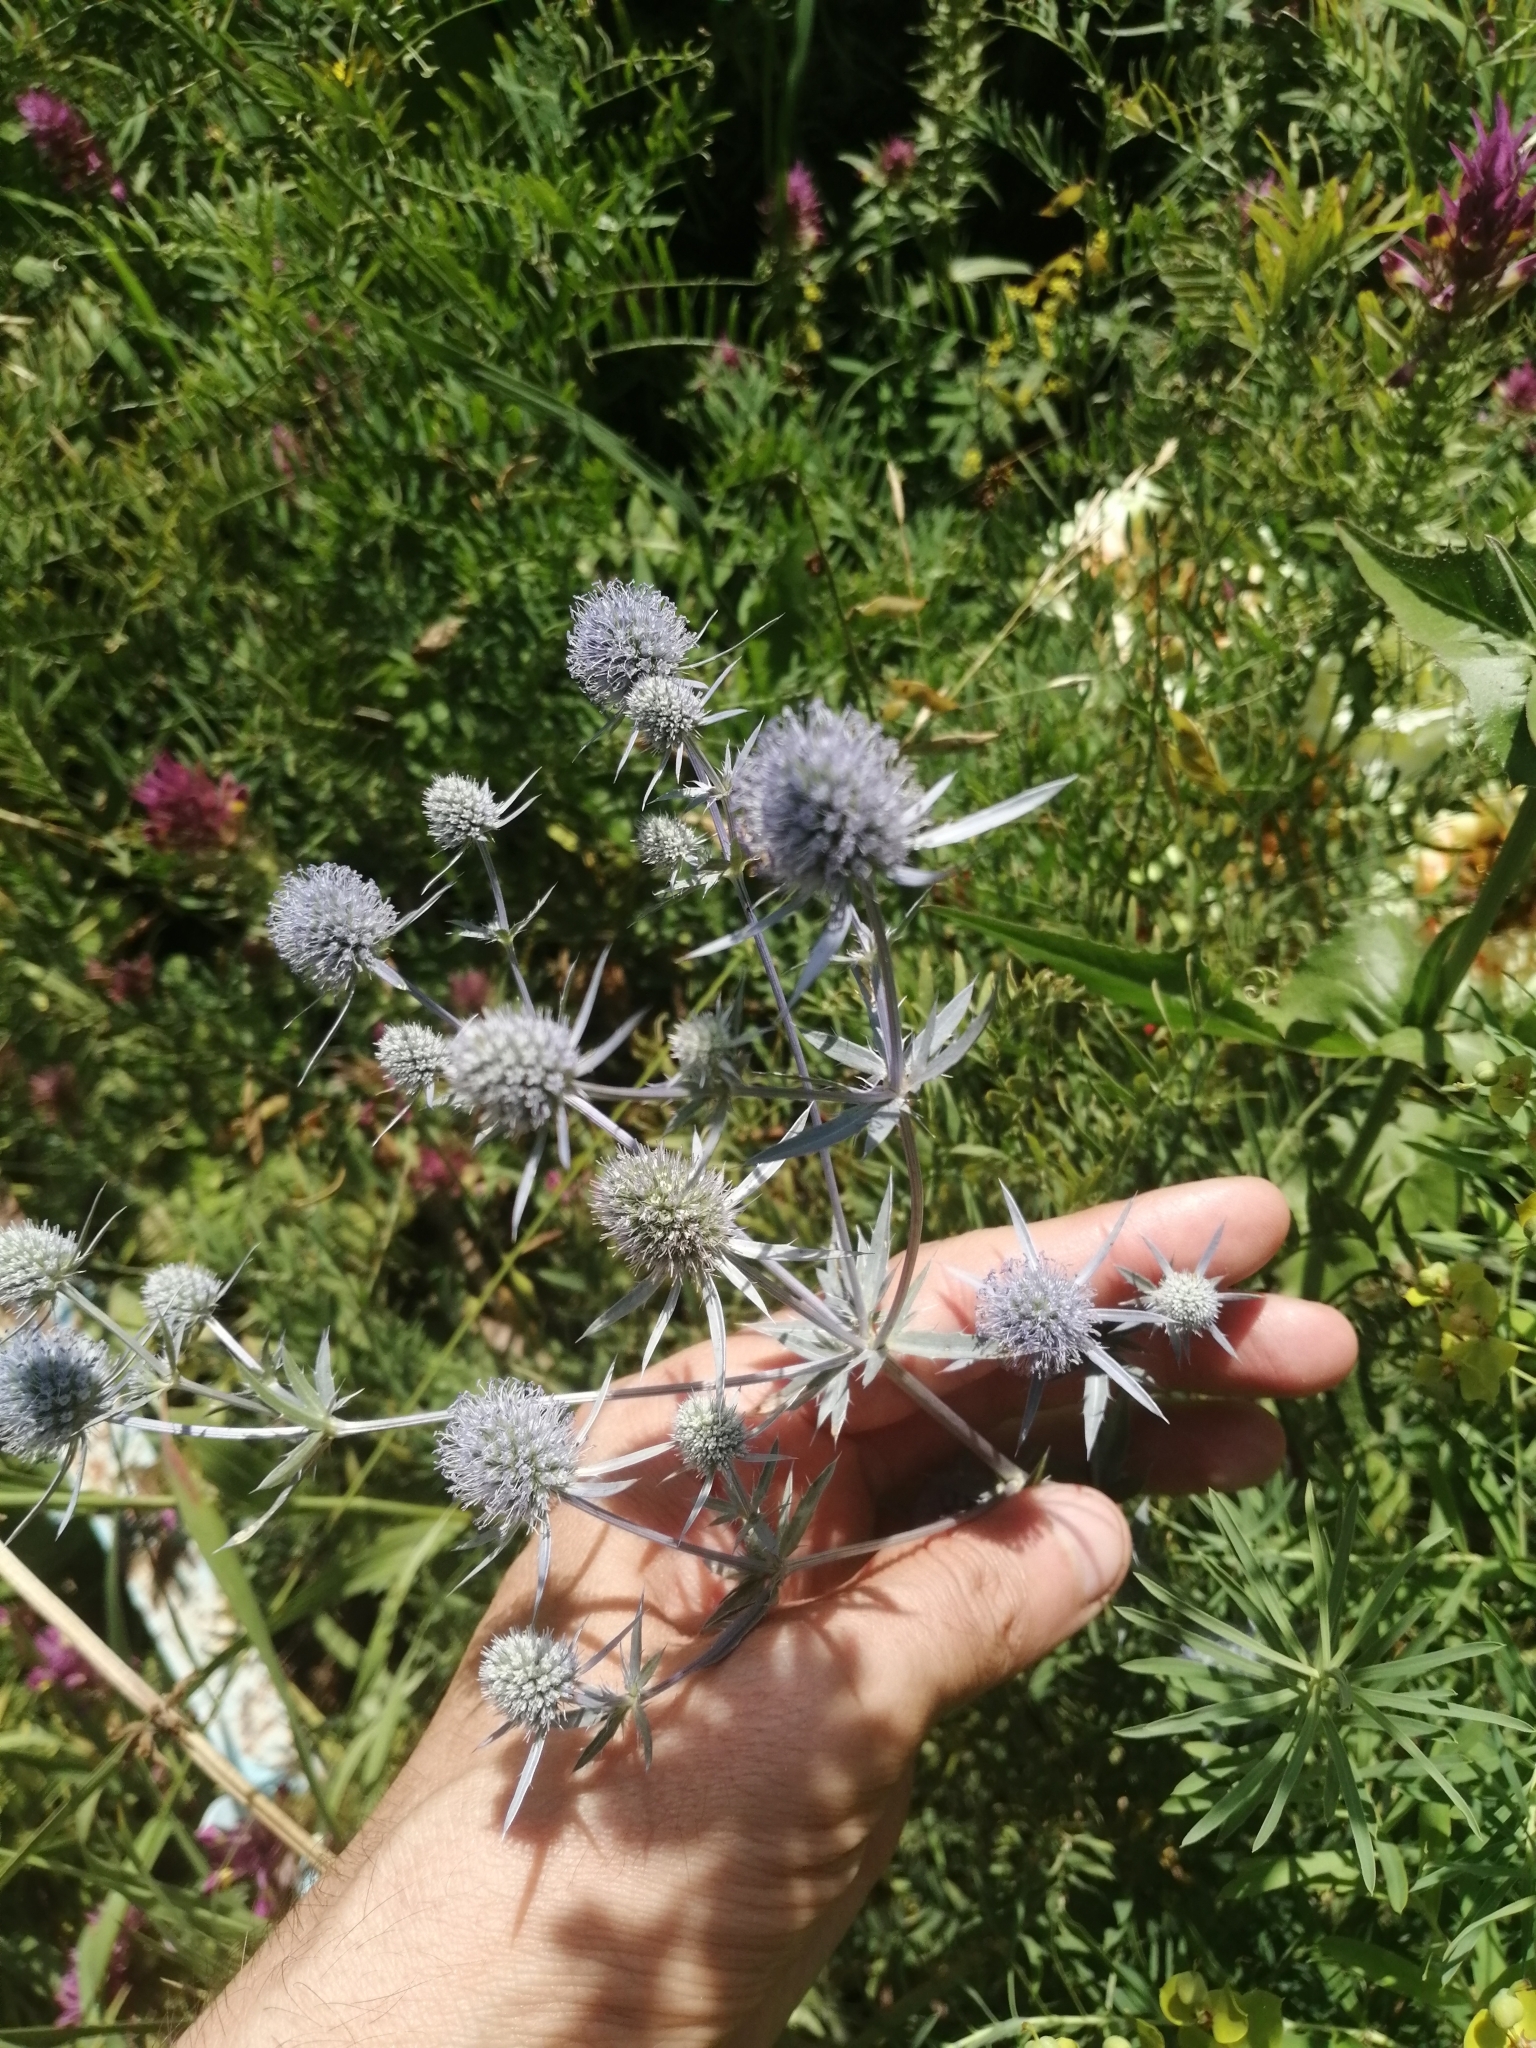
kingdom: Plantae
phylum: Tracheophyta
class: Magnoliopsida
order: Apiales
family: Apiaceae
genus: Eryngium
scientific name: Eryngium planum
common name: Blue eryngo
